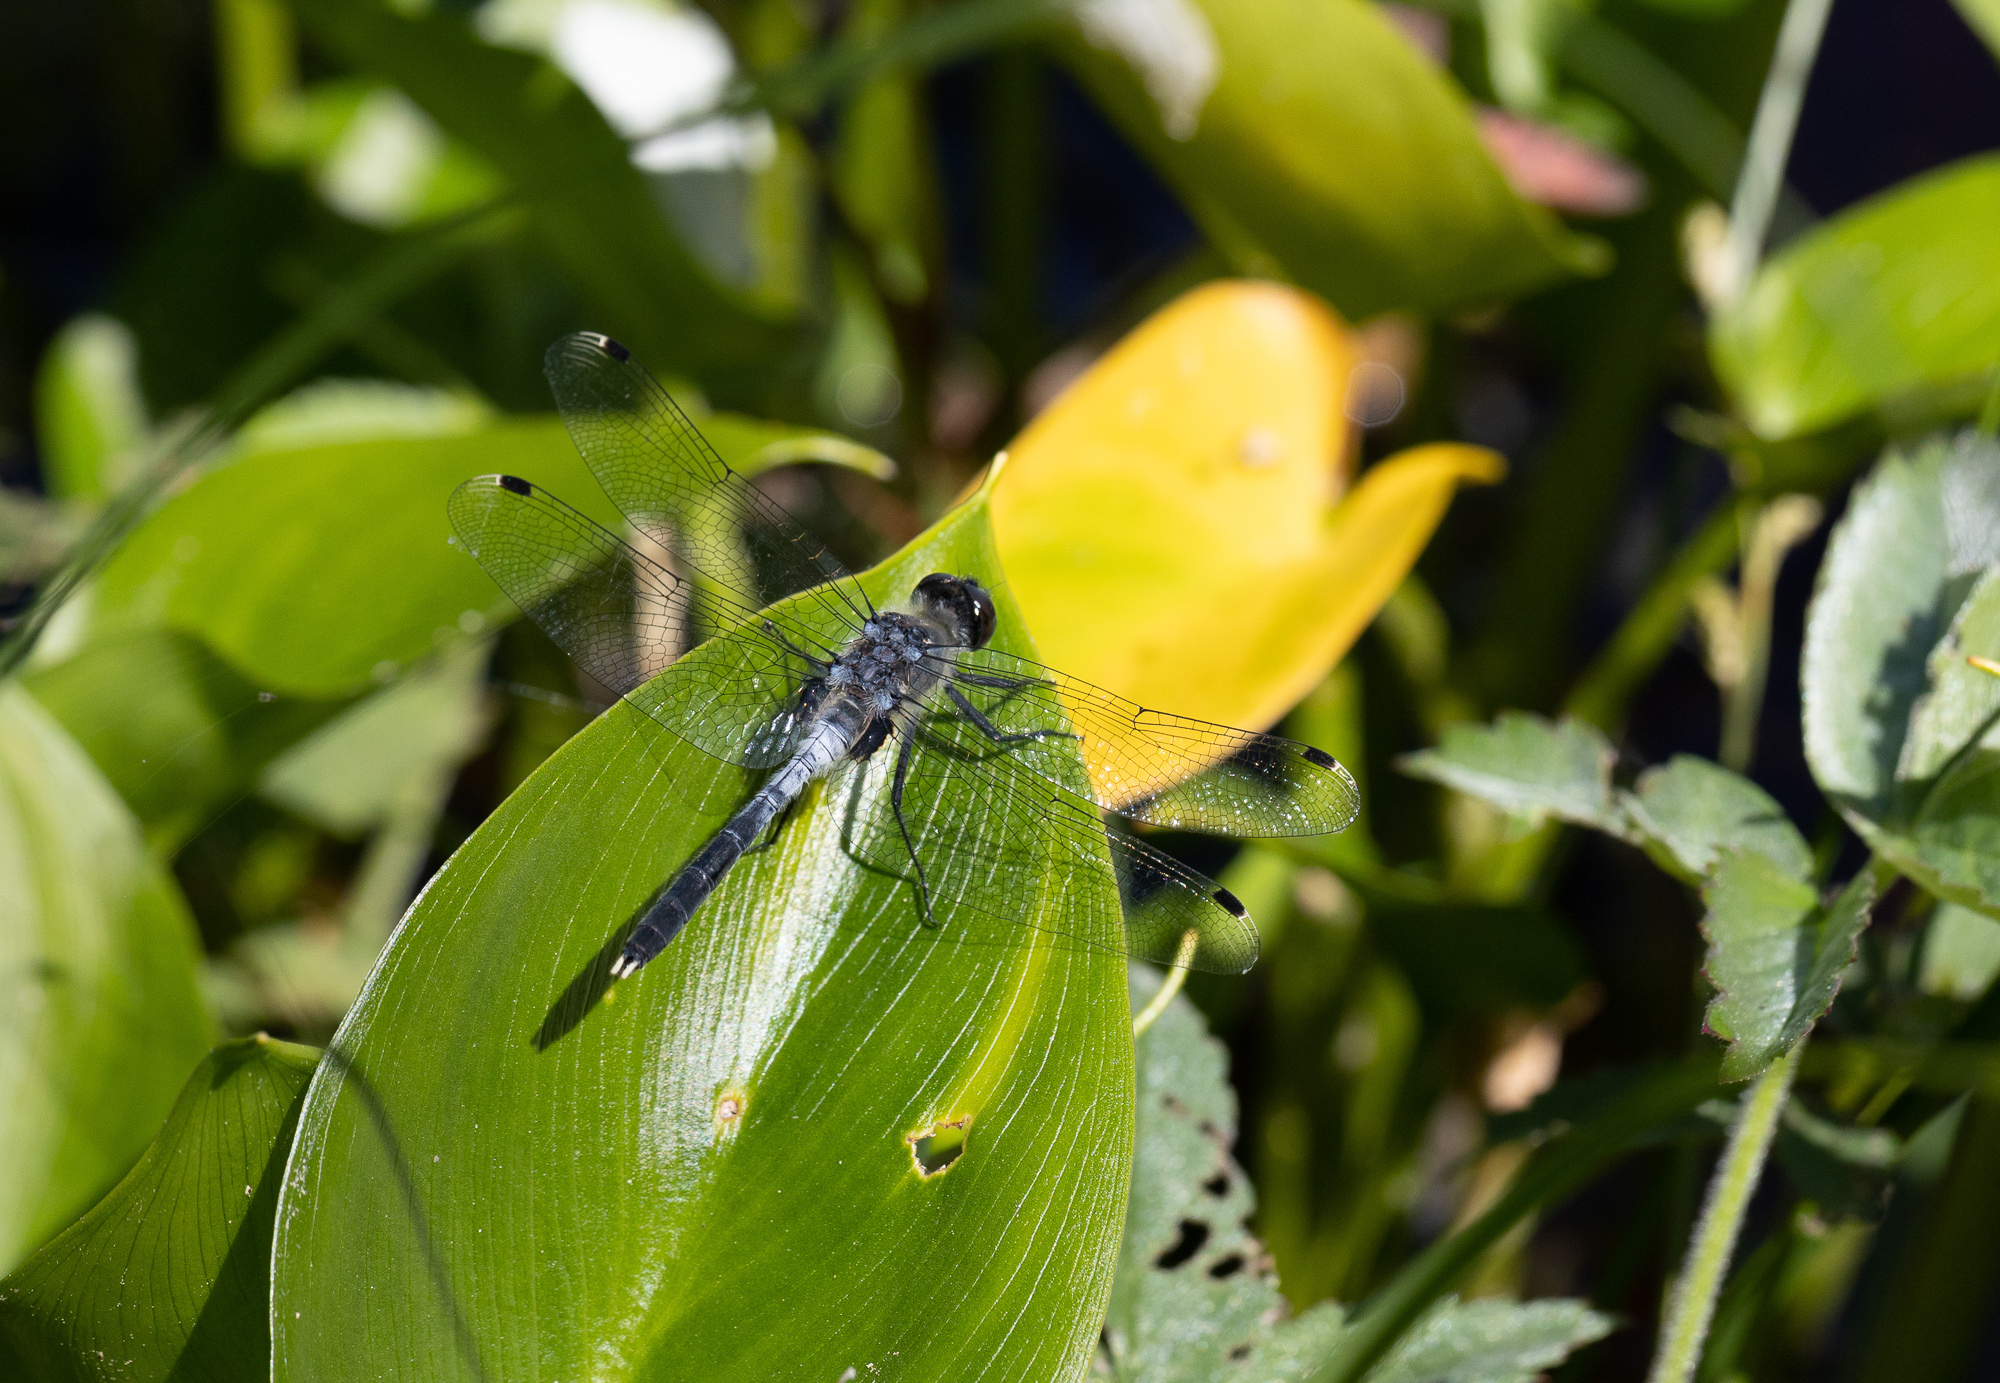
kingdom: Animalia
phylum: Arthropoda
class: Insecta
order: Odonata
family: Libellulidae
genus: Leucorrhinia
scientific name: Leucorrhinia albifrons
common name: Dark whiteface
